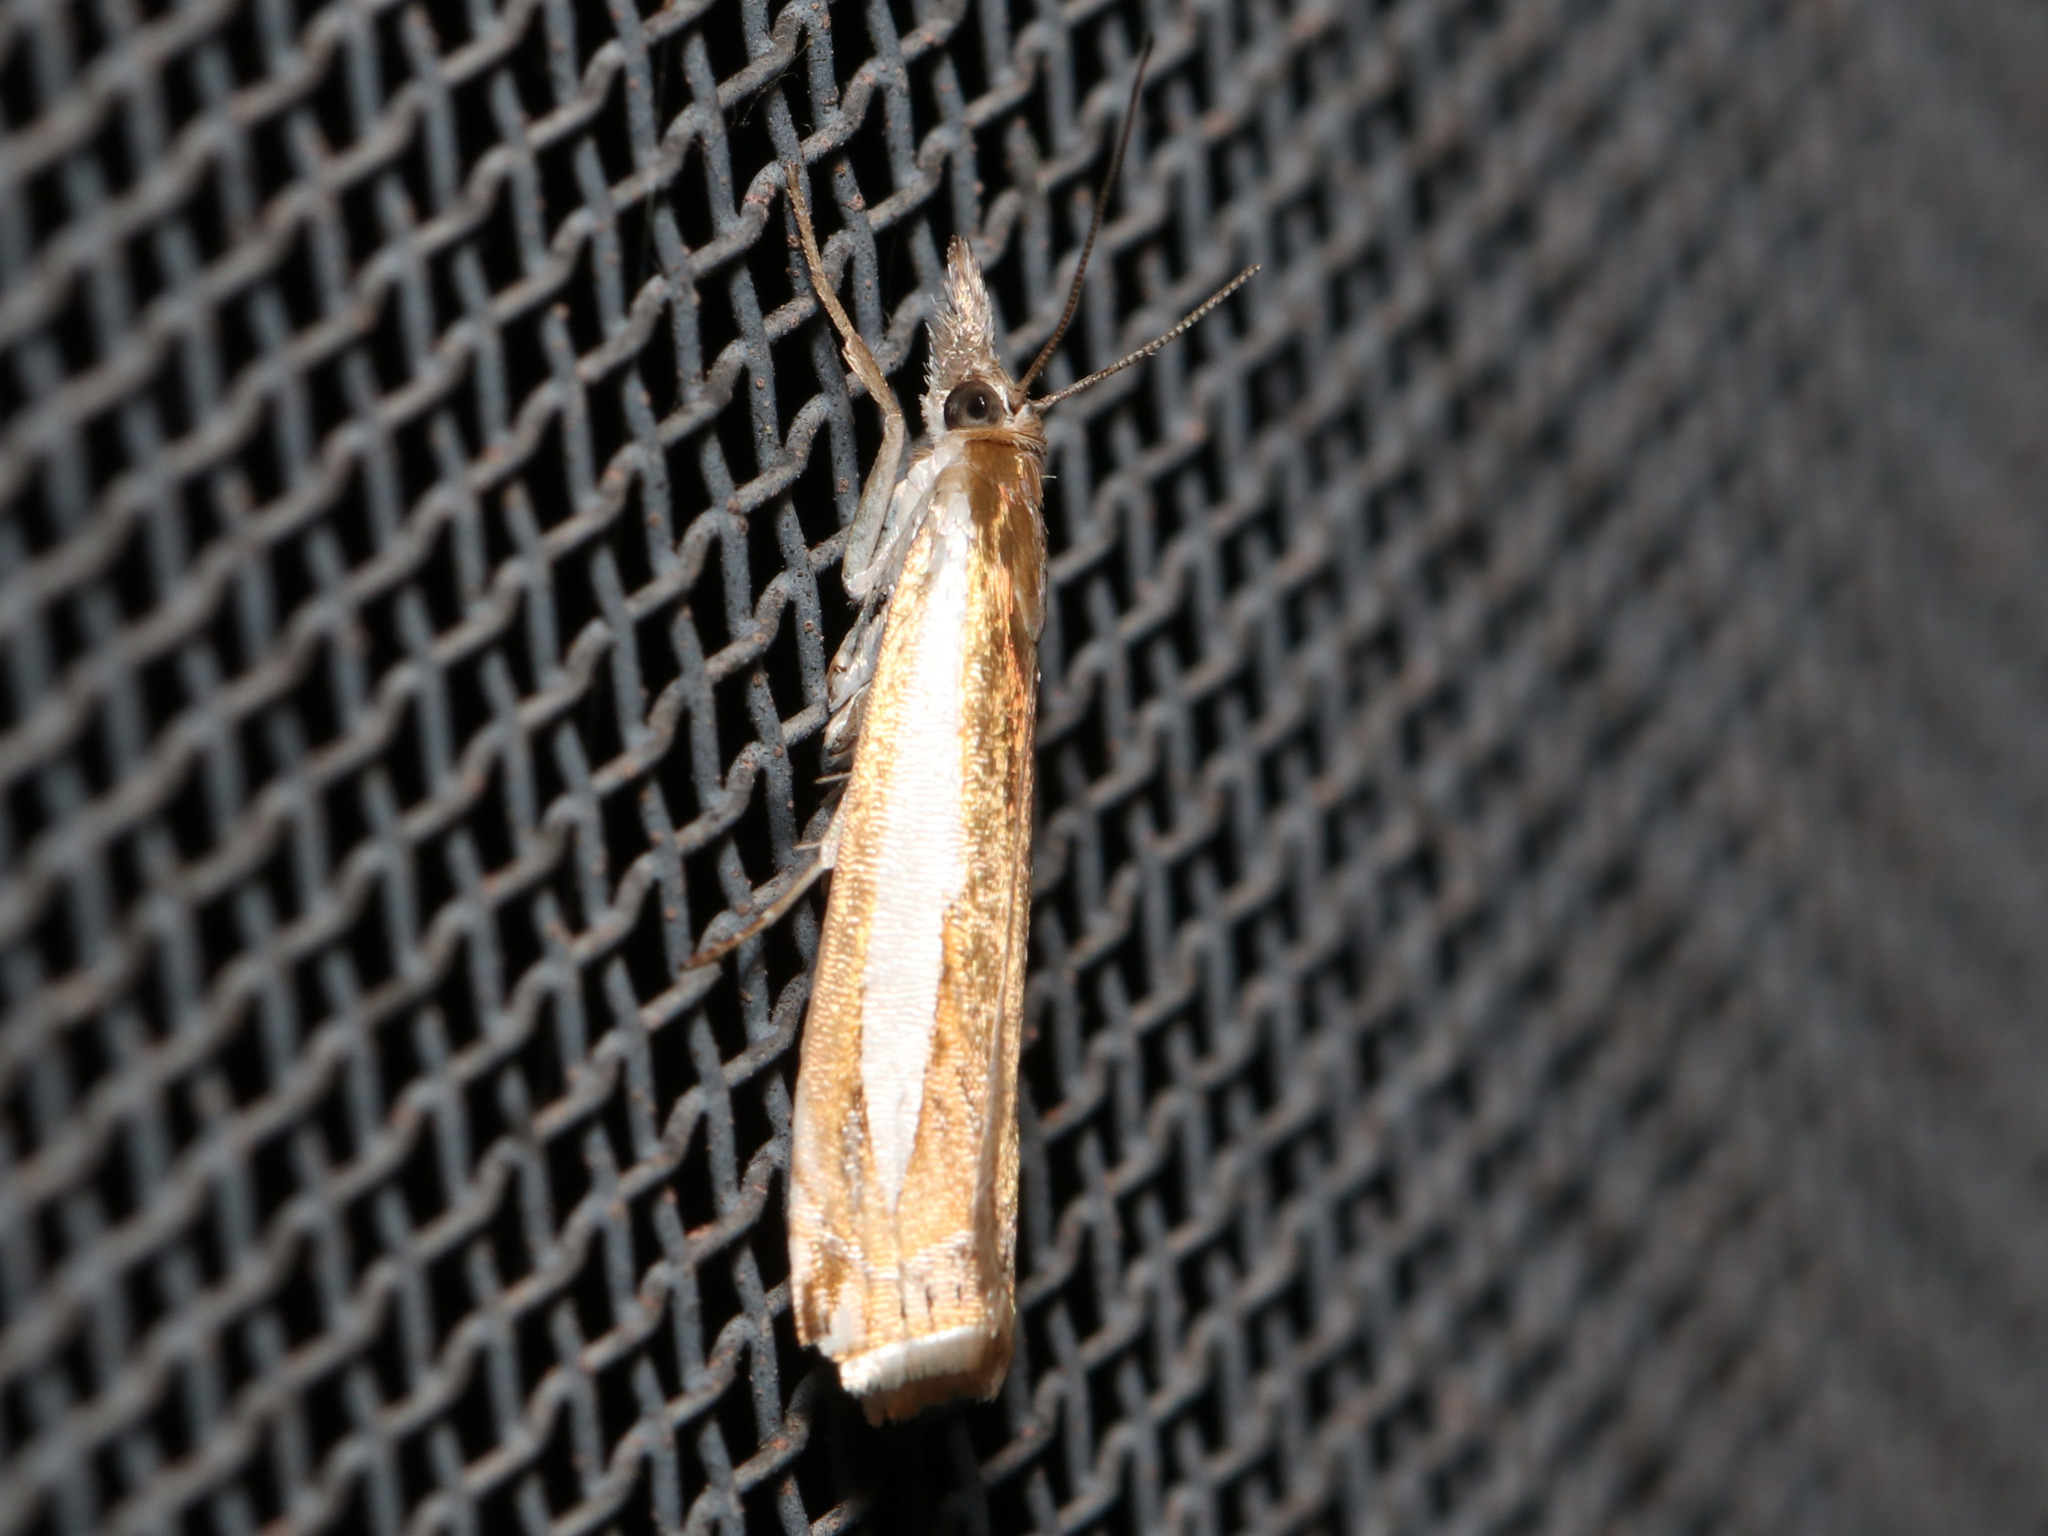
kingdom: Animalia
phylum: Arthropoda
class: Insecta
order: Lepidoptera
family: Crambidae
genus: Crambus
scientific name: Crambus praefectellus
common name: Common grass-veneer
